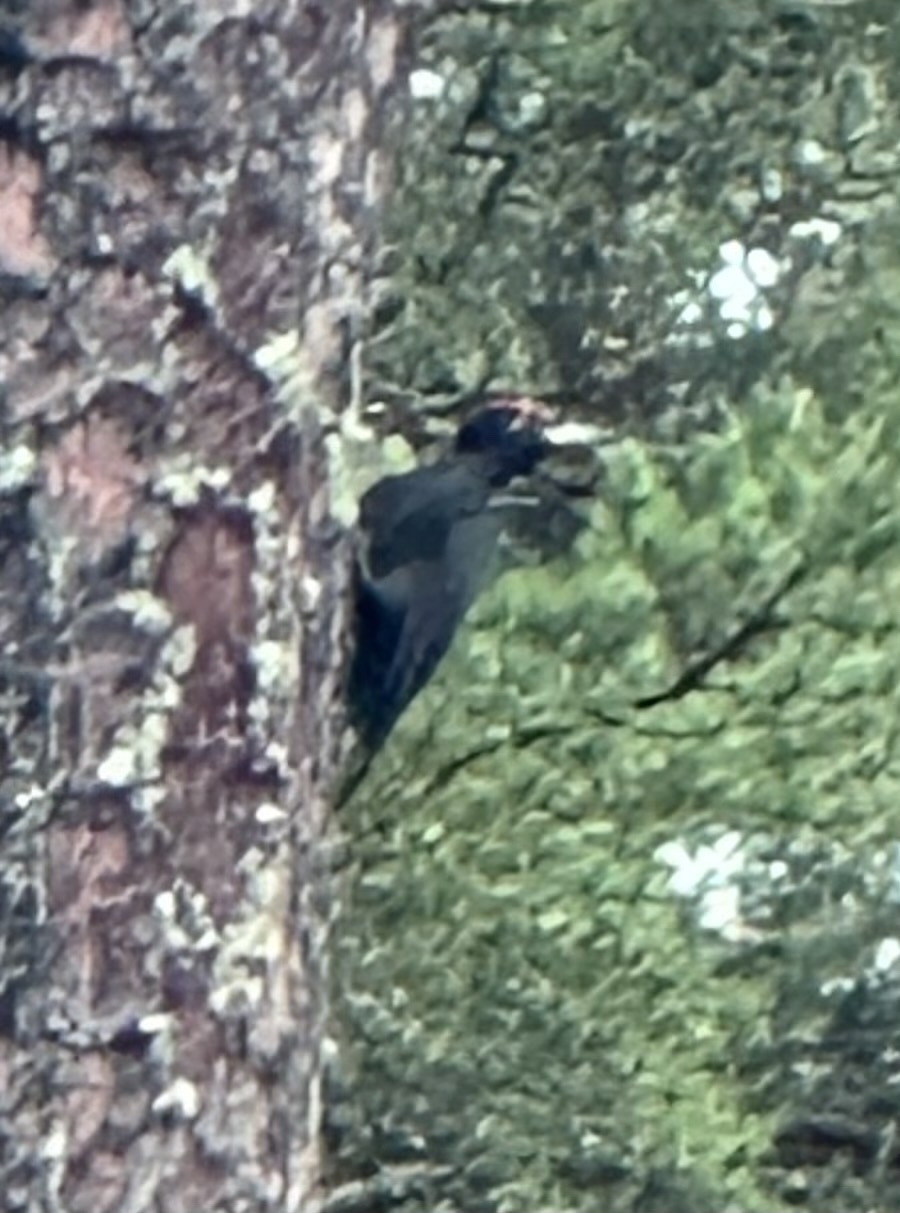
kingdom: Animalia
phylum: Chordata
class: Aves
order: Piciformes
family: Picidae
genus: Dryocopus
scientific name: Dryocopus martius
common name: Black woodpecker
